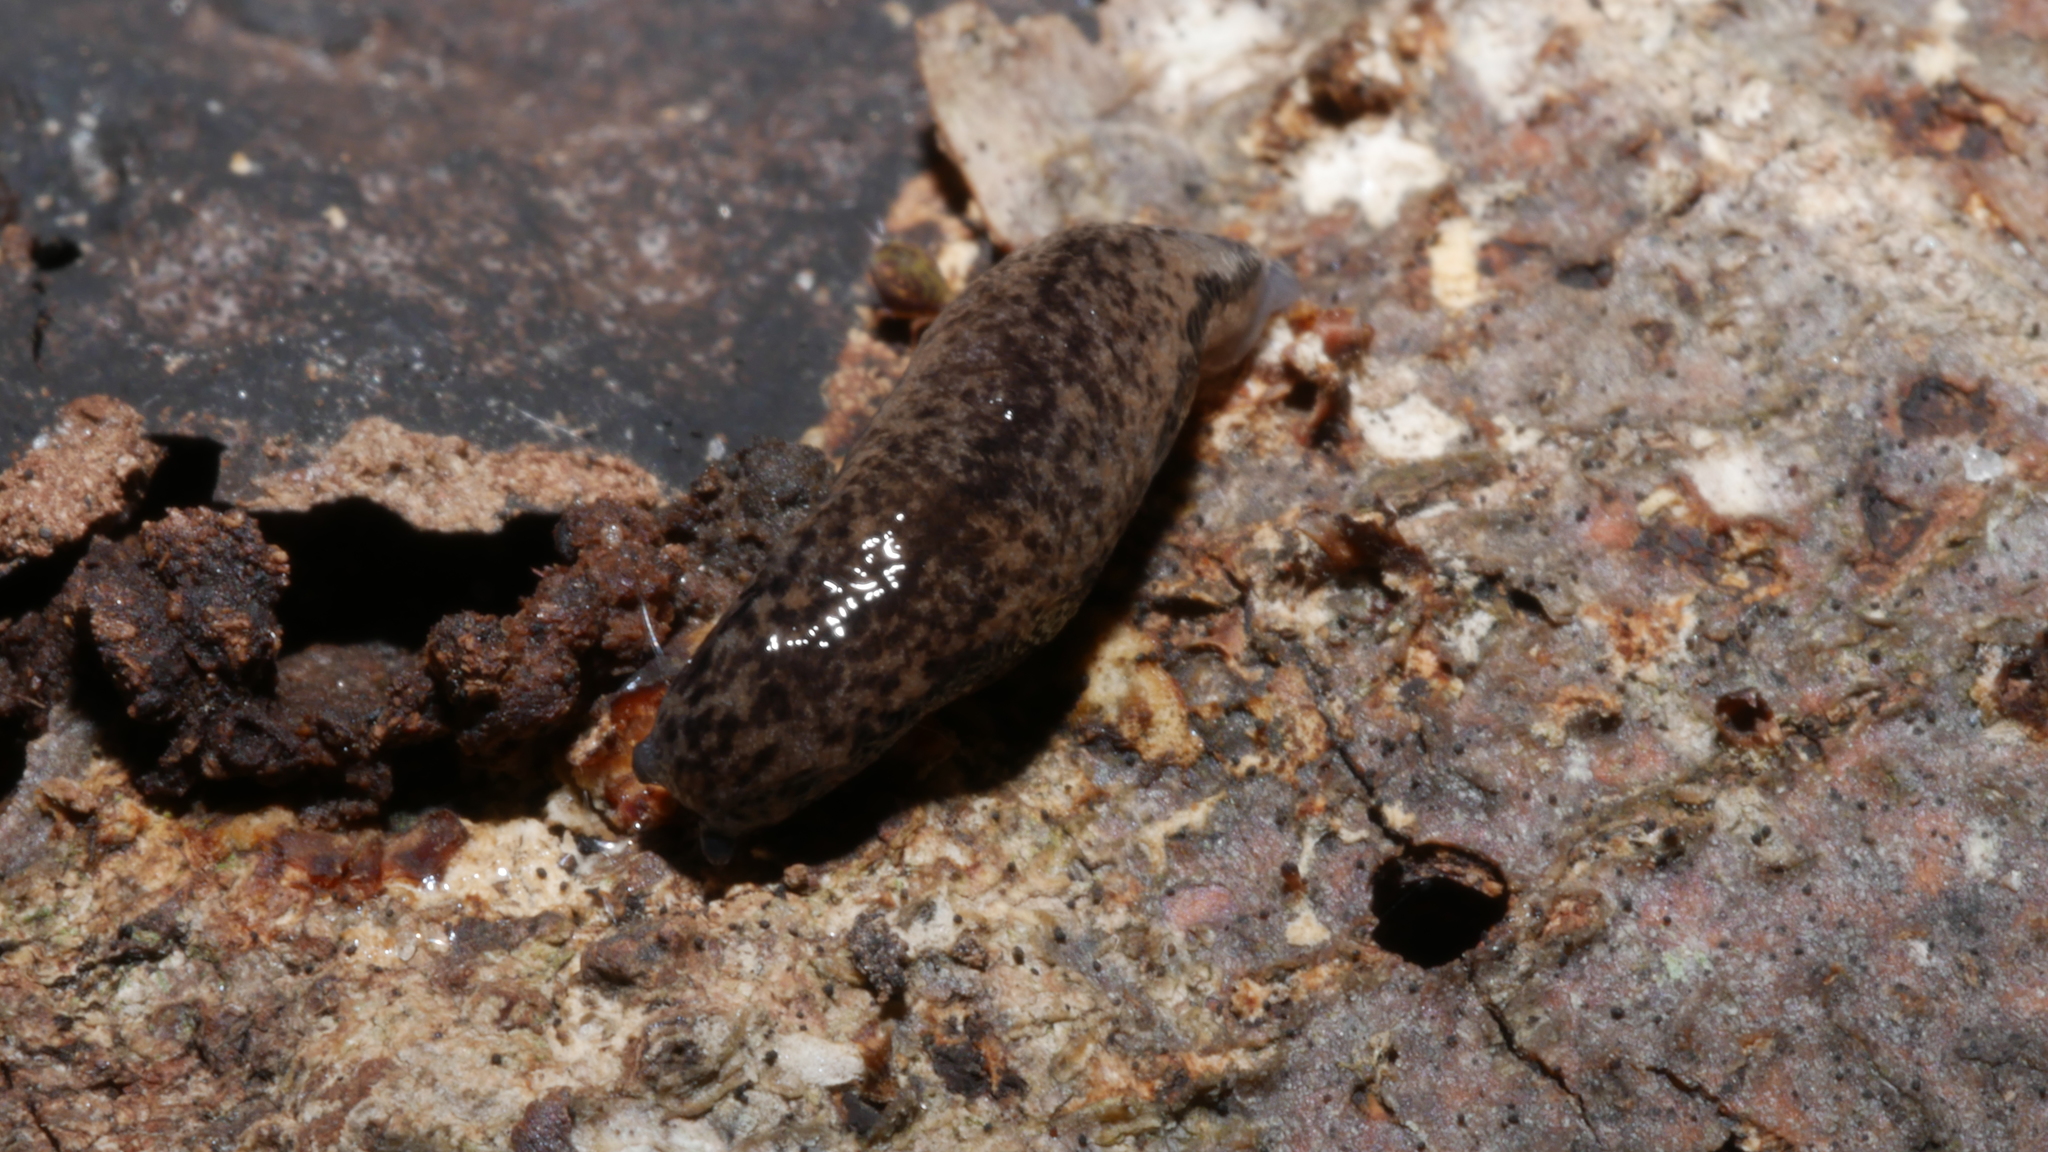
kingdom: Animalia
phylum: Mollusca
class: Gastropoda
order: Stylommatophora
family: Philomycidae
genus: Pallifera
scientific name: Pallifera fosteri
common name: Foster mantleslug
